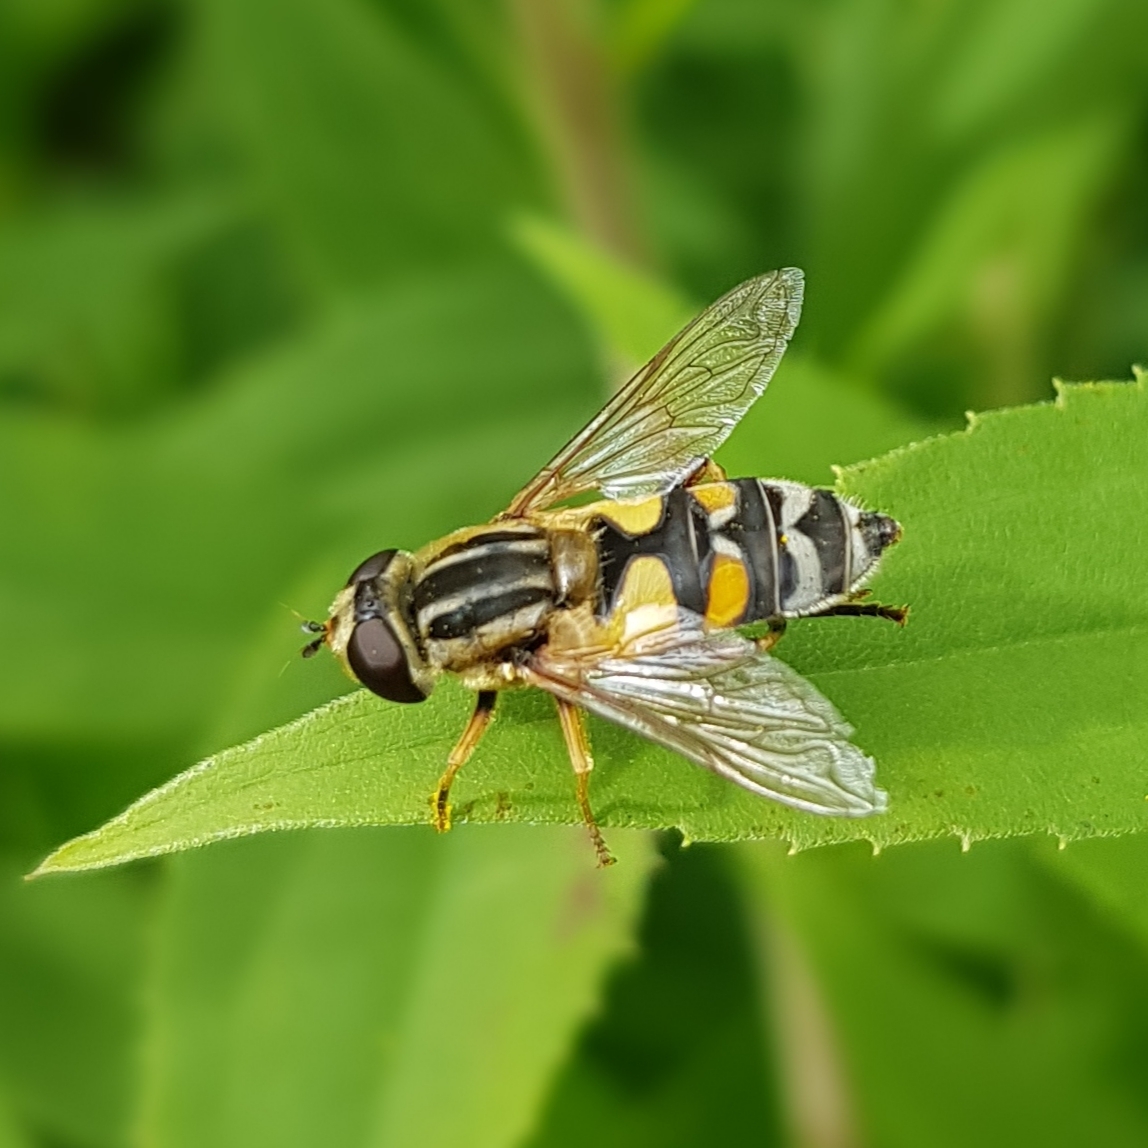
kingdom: Animalia
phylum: Arthropoda
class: Insecta
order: Diptera
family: Syrphidae
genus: Helophilus
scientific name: Helophilus trivittatus
